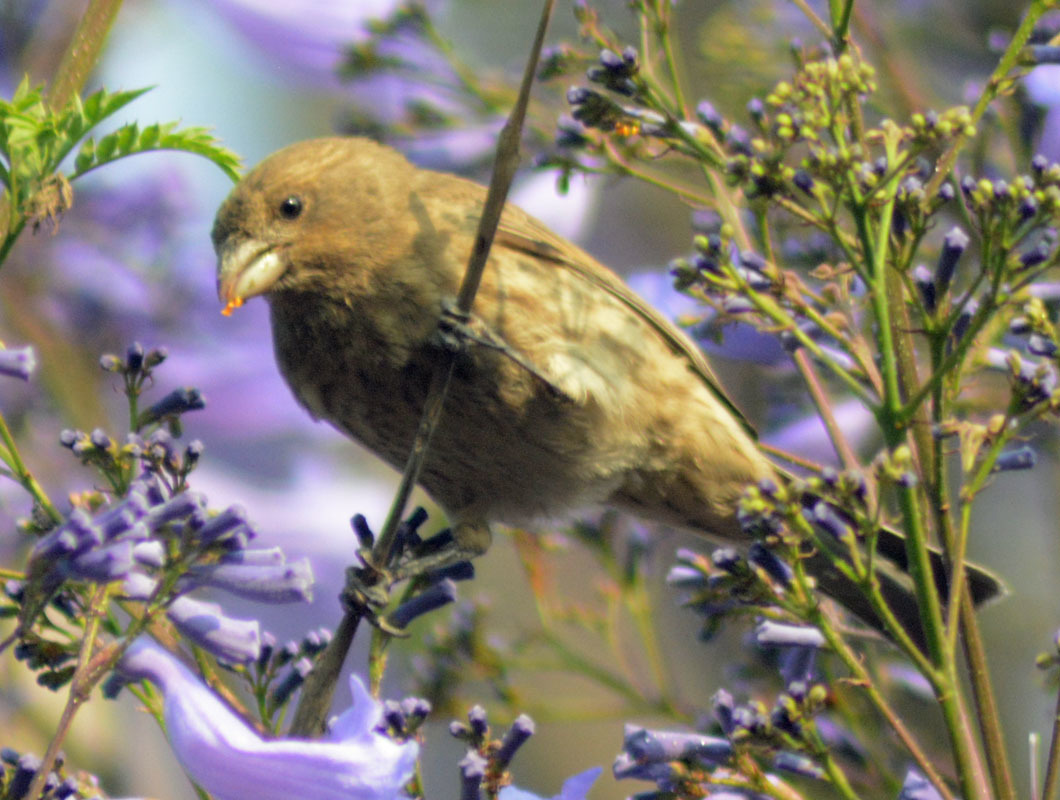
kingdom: Animalia
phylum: Chordata
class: Aves
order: Passeriformes
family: Fringillidae
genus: Haemorhous
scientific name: Haemorhous mexicanus
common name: House finch
